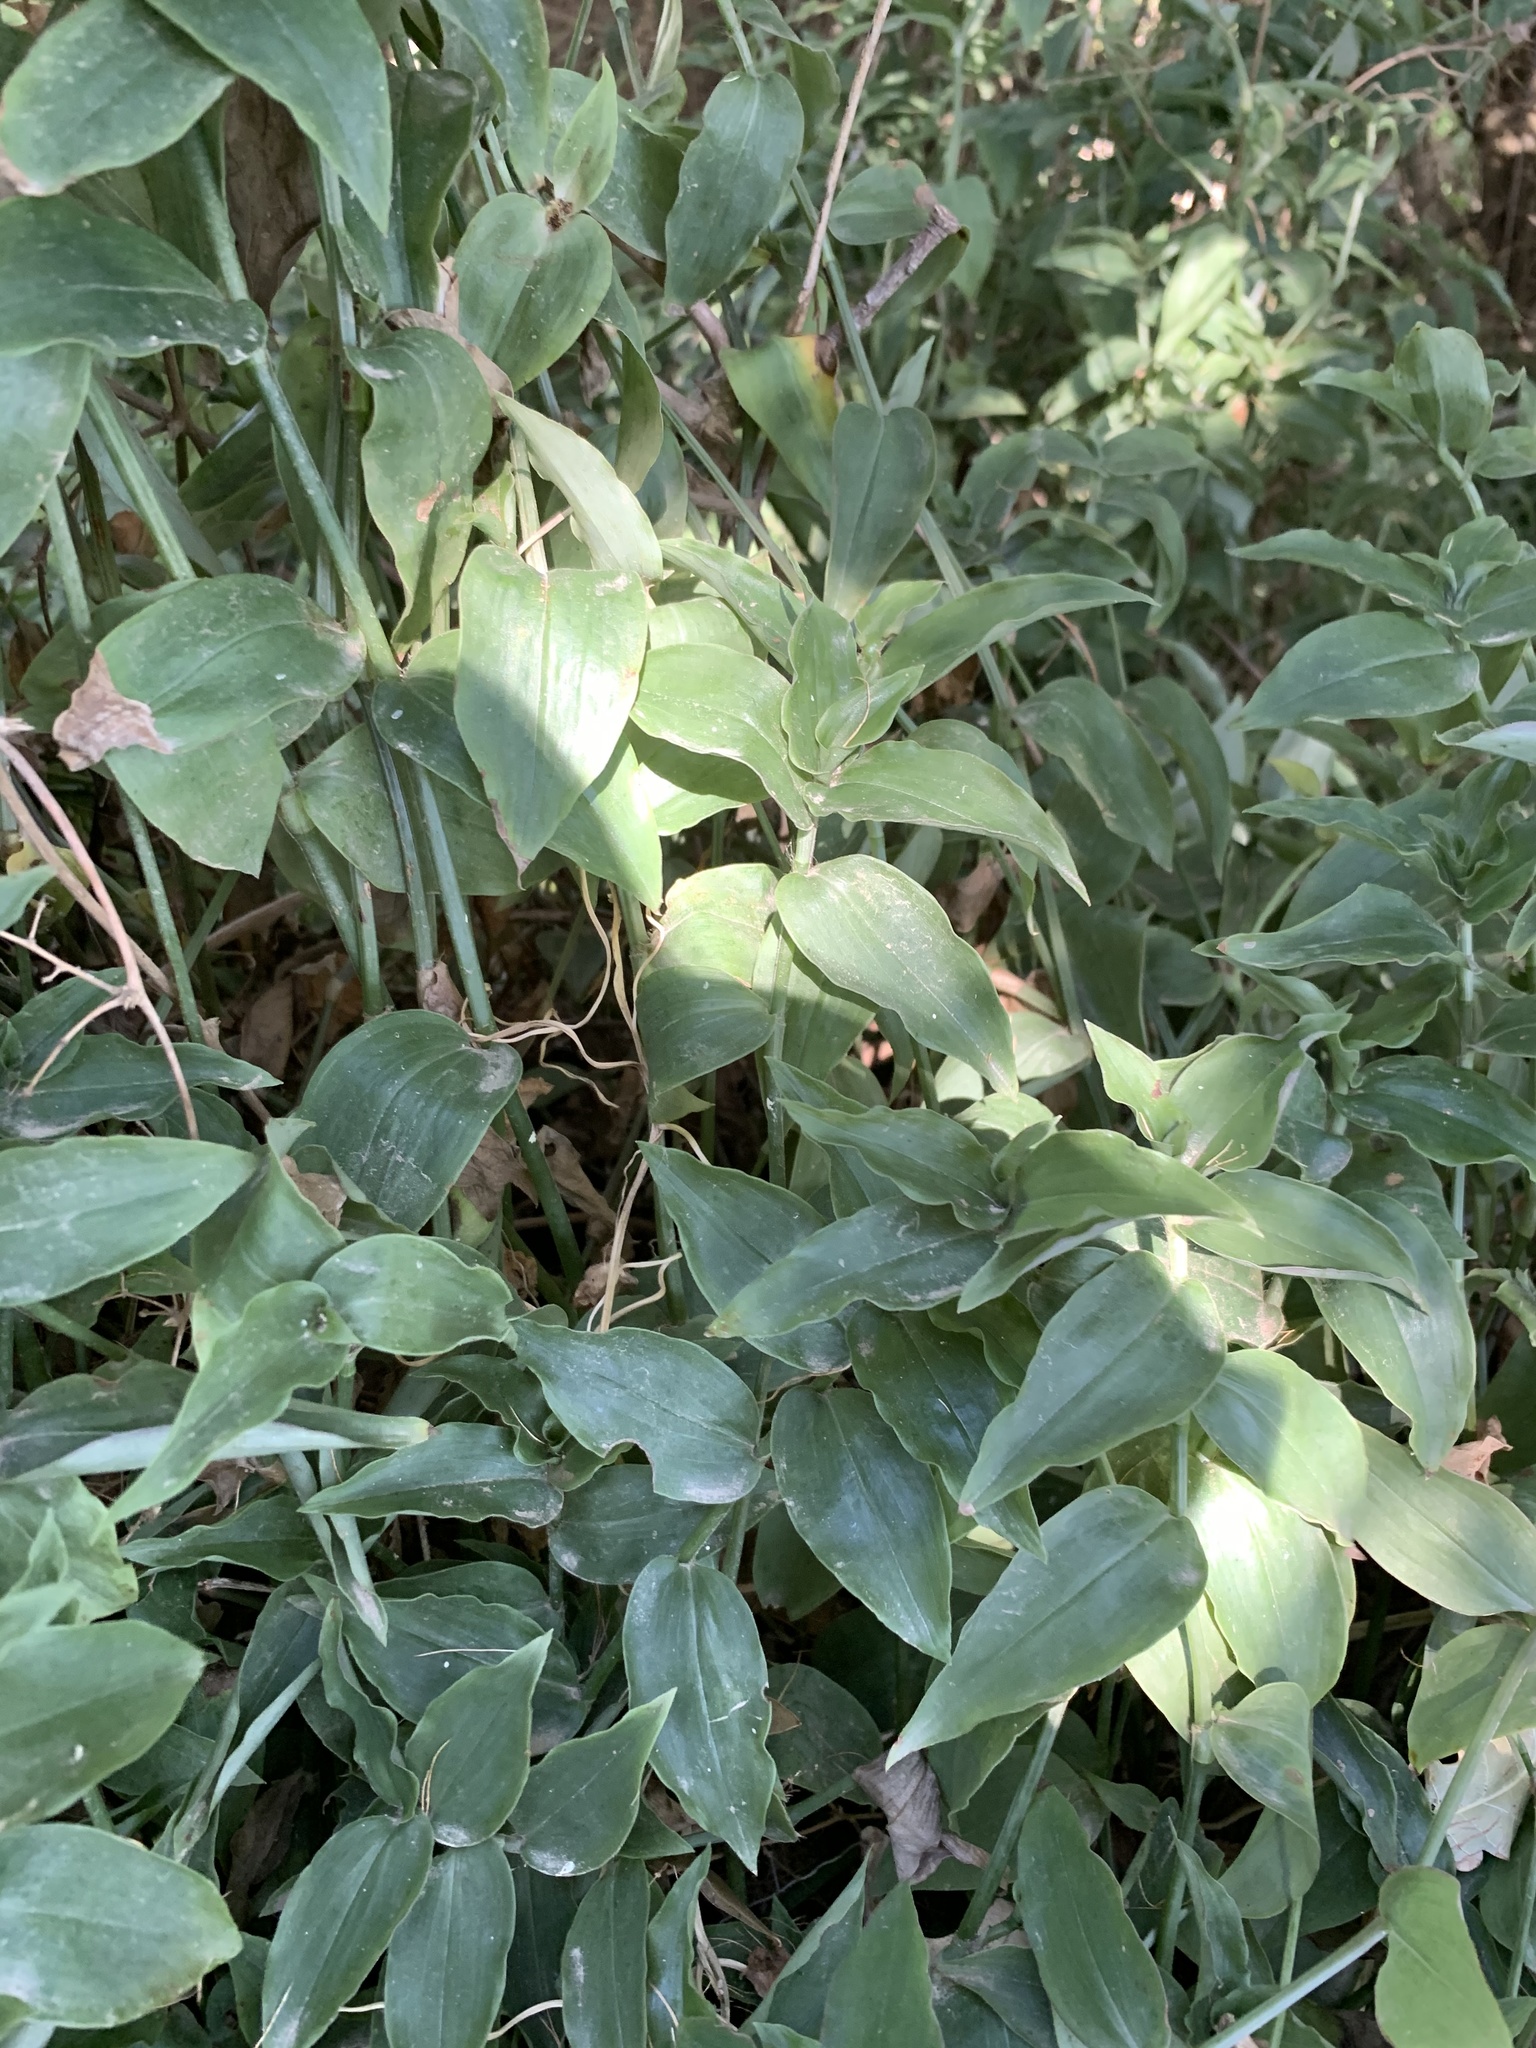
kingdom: Plantae
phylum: Tracheophyta
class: Liliopsida
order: Commelinales
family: Commelinaceae
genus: Tradescantia
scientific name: Tradescantia fluminensis
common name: Wandering-jew
